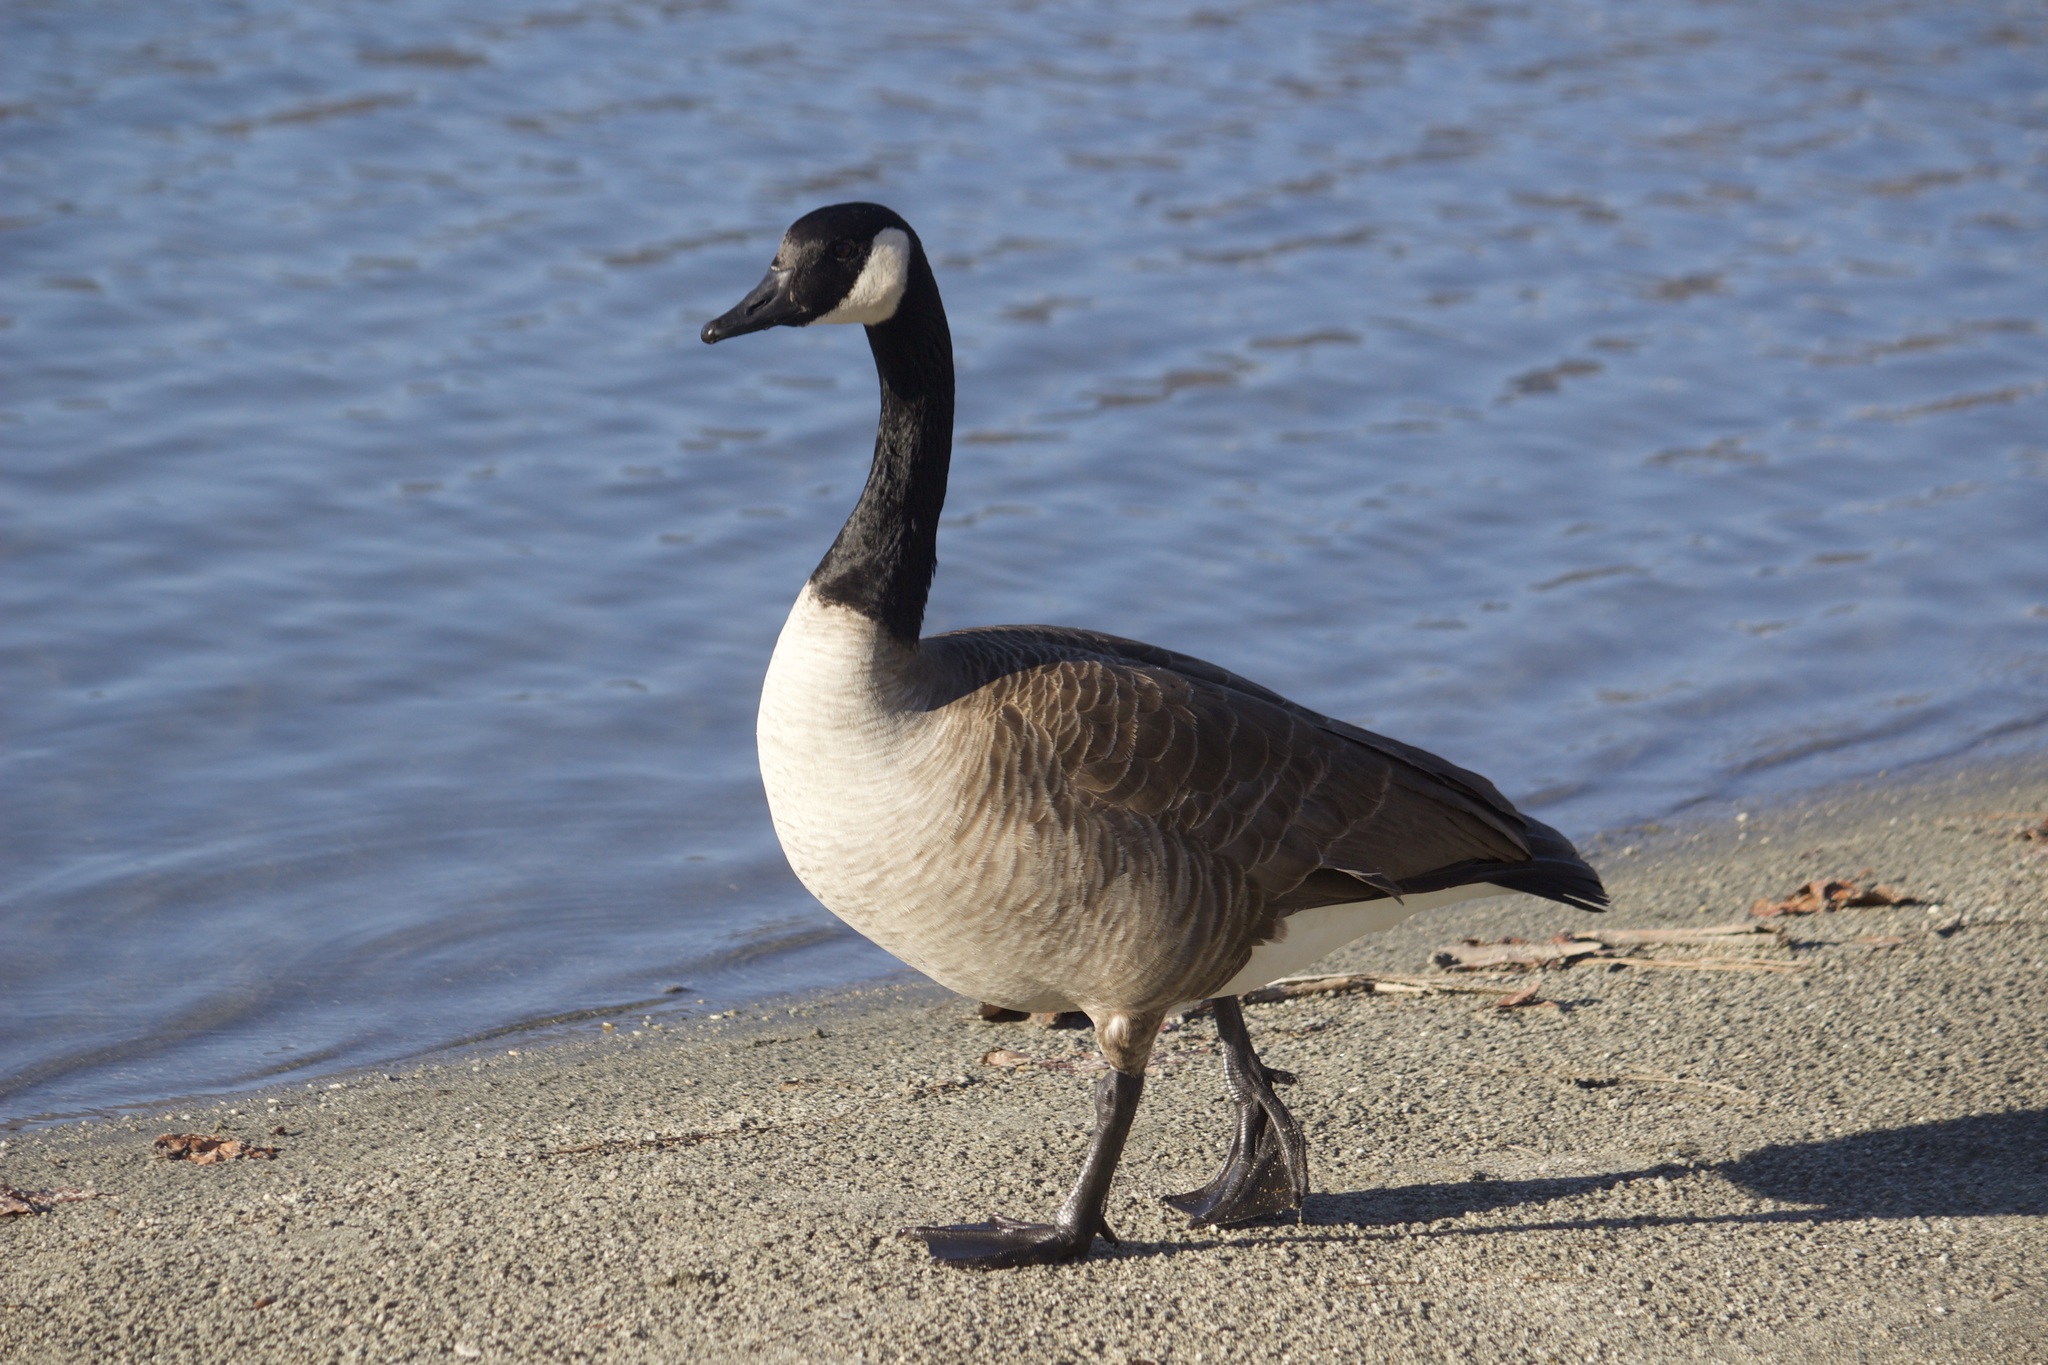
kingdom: Animalia
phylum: Chordata
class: Aves
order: Anseriformes
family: Anatidae
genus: Branta
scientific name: Branta canadensis
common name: Canada goose
